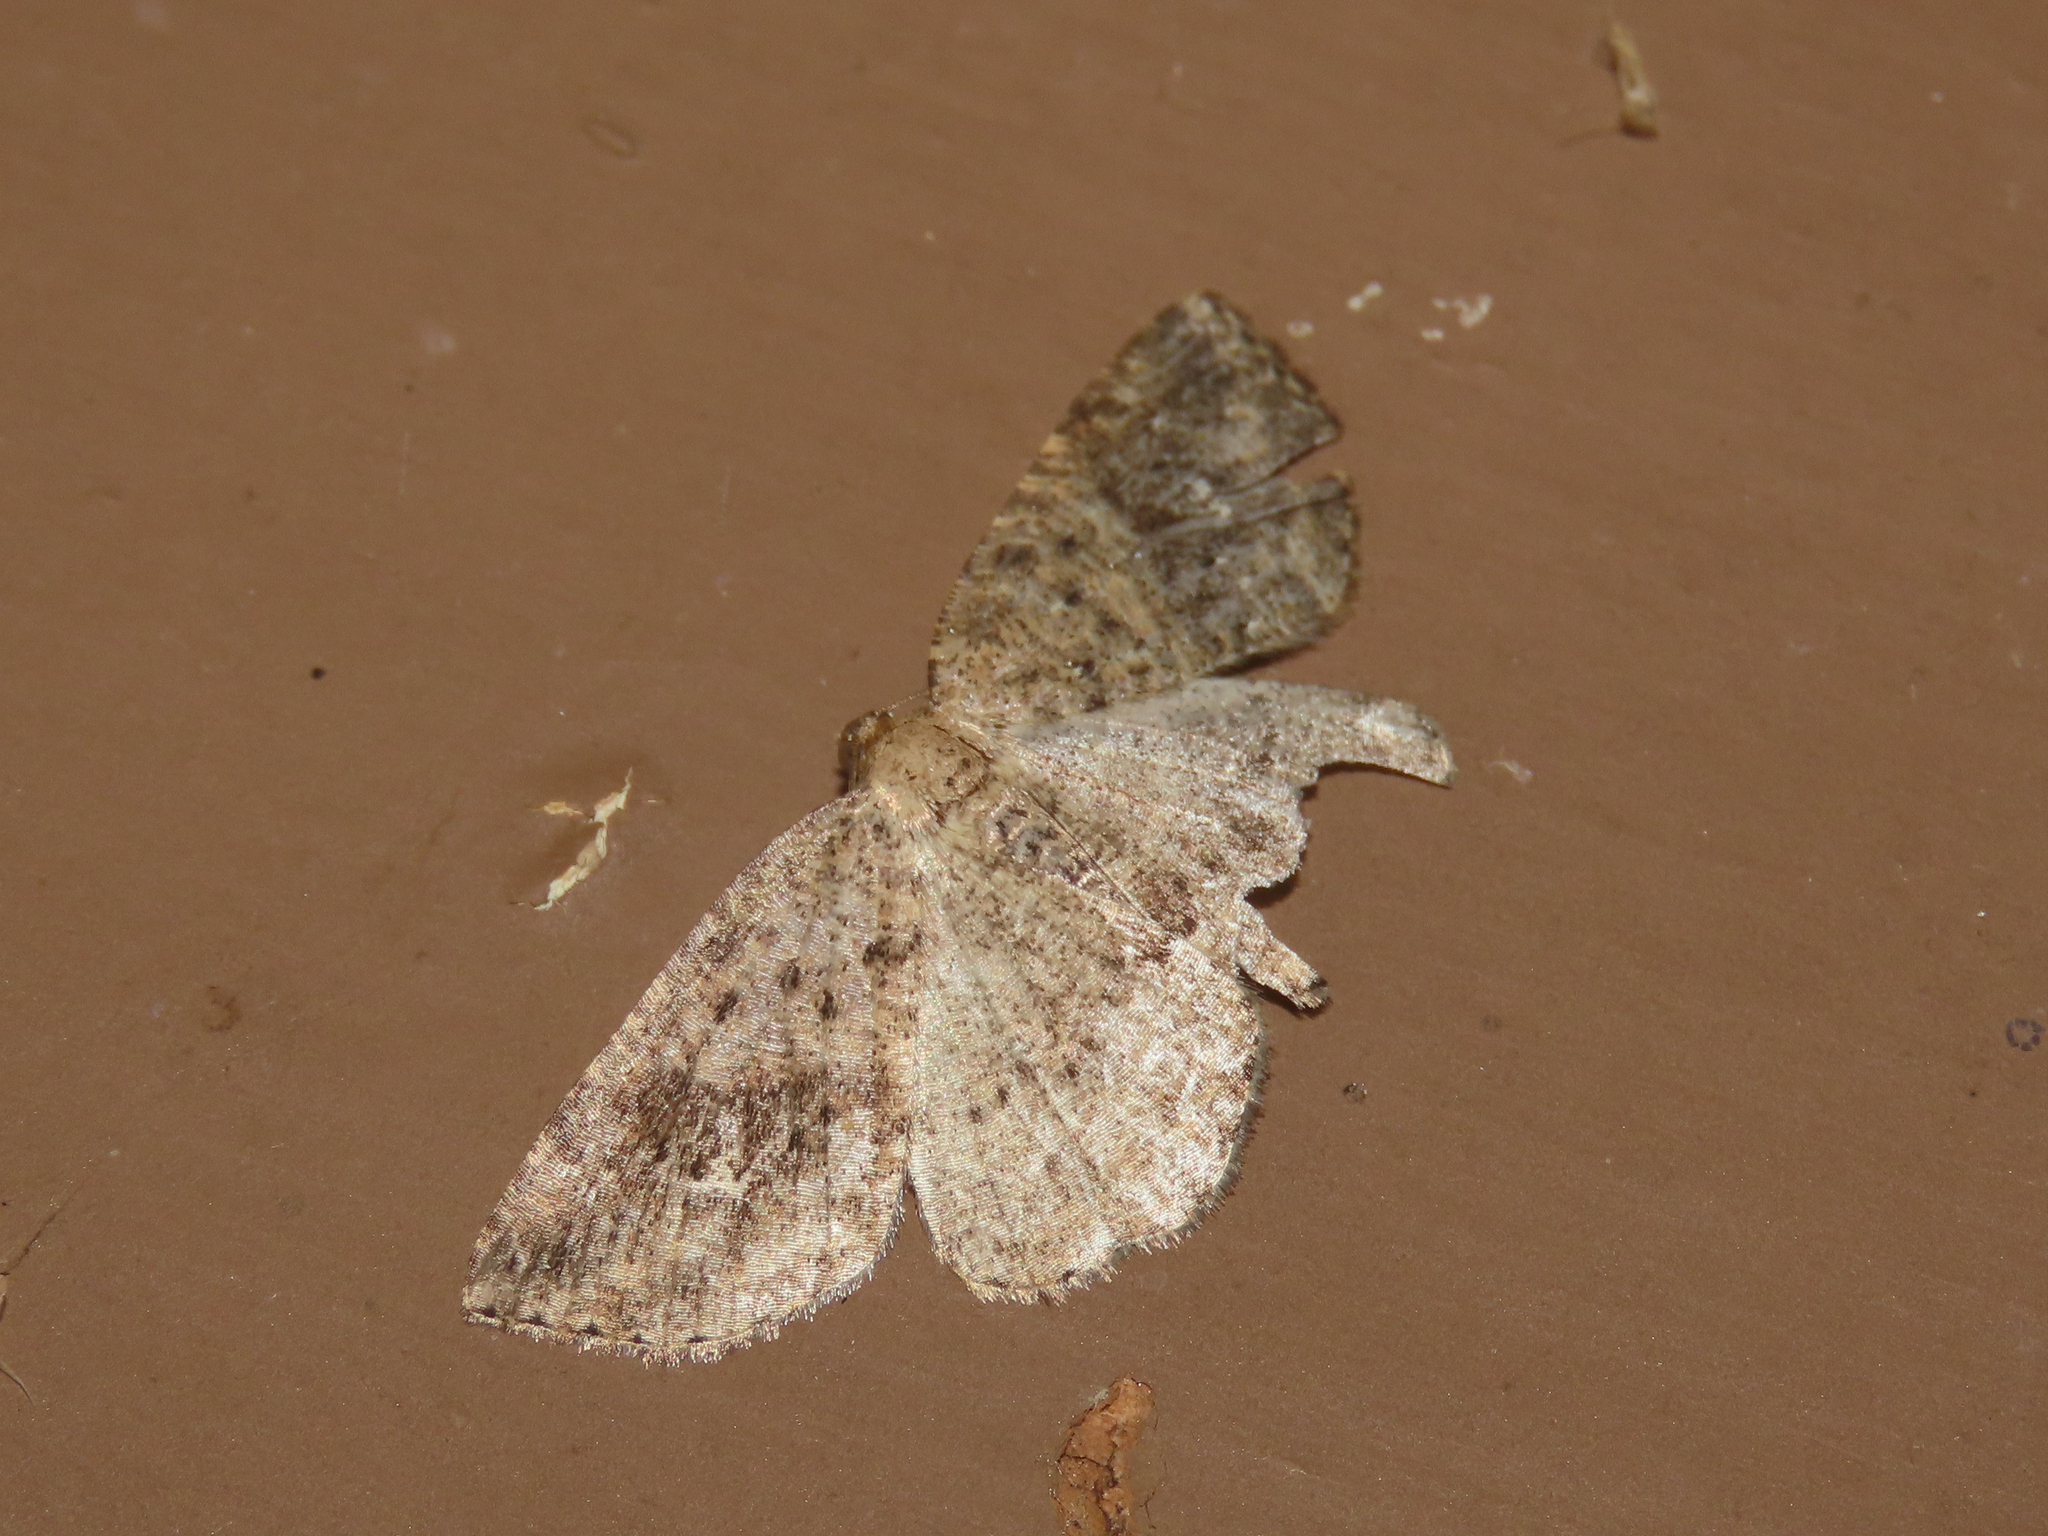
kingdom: Animalia
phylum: Arthropoda
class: Insecta
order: Lepidoptera
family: Geometridae
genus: Homochlodes
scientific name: Homochlodes fritillaria
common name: Pale homochlodes
